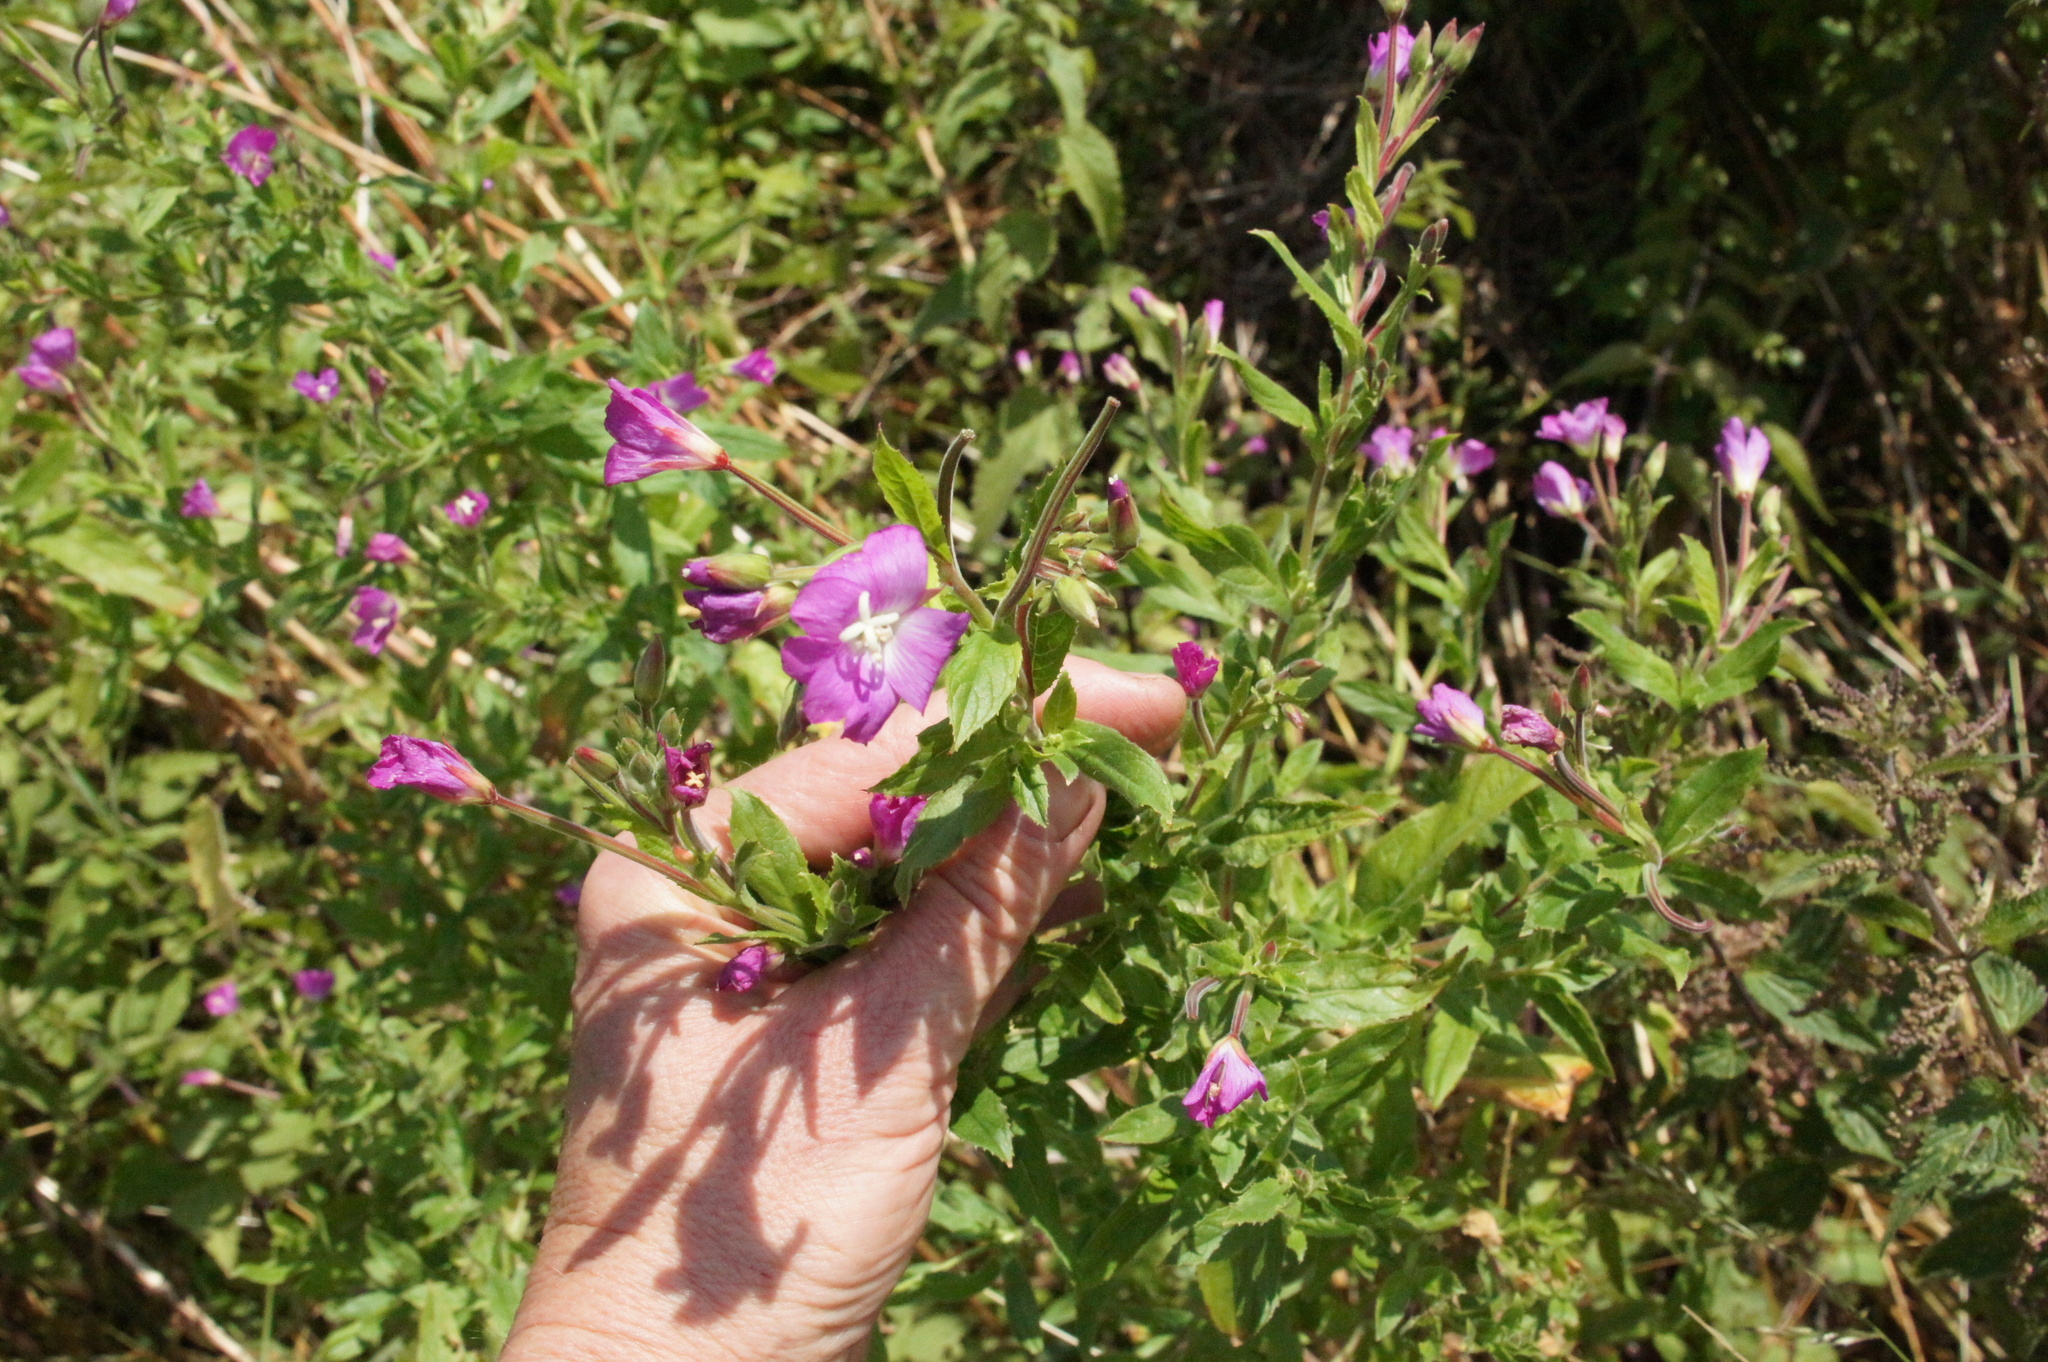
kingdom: Plantae
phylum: Tracheophyta
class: Magnoliopsida
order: Myrtales
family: Onagraceae
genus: Epilobium
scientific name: Epilobium hirsutum
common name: Great willowherb
